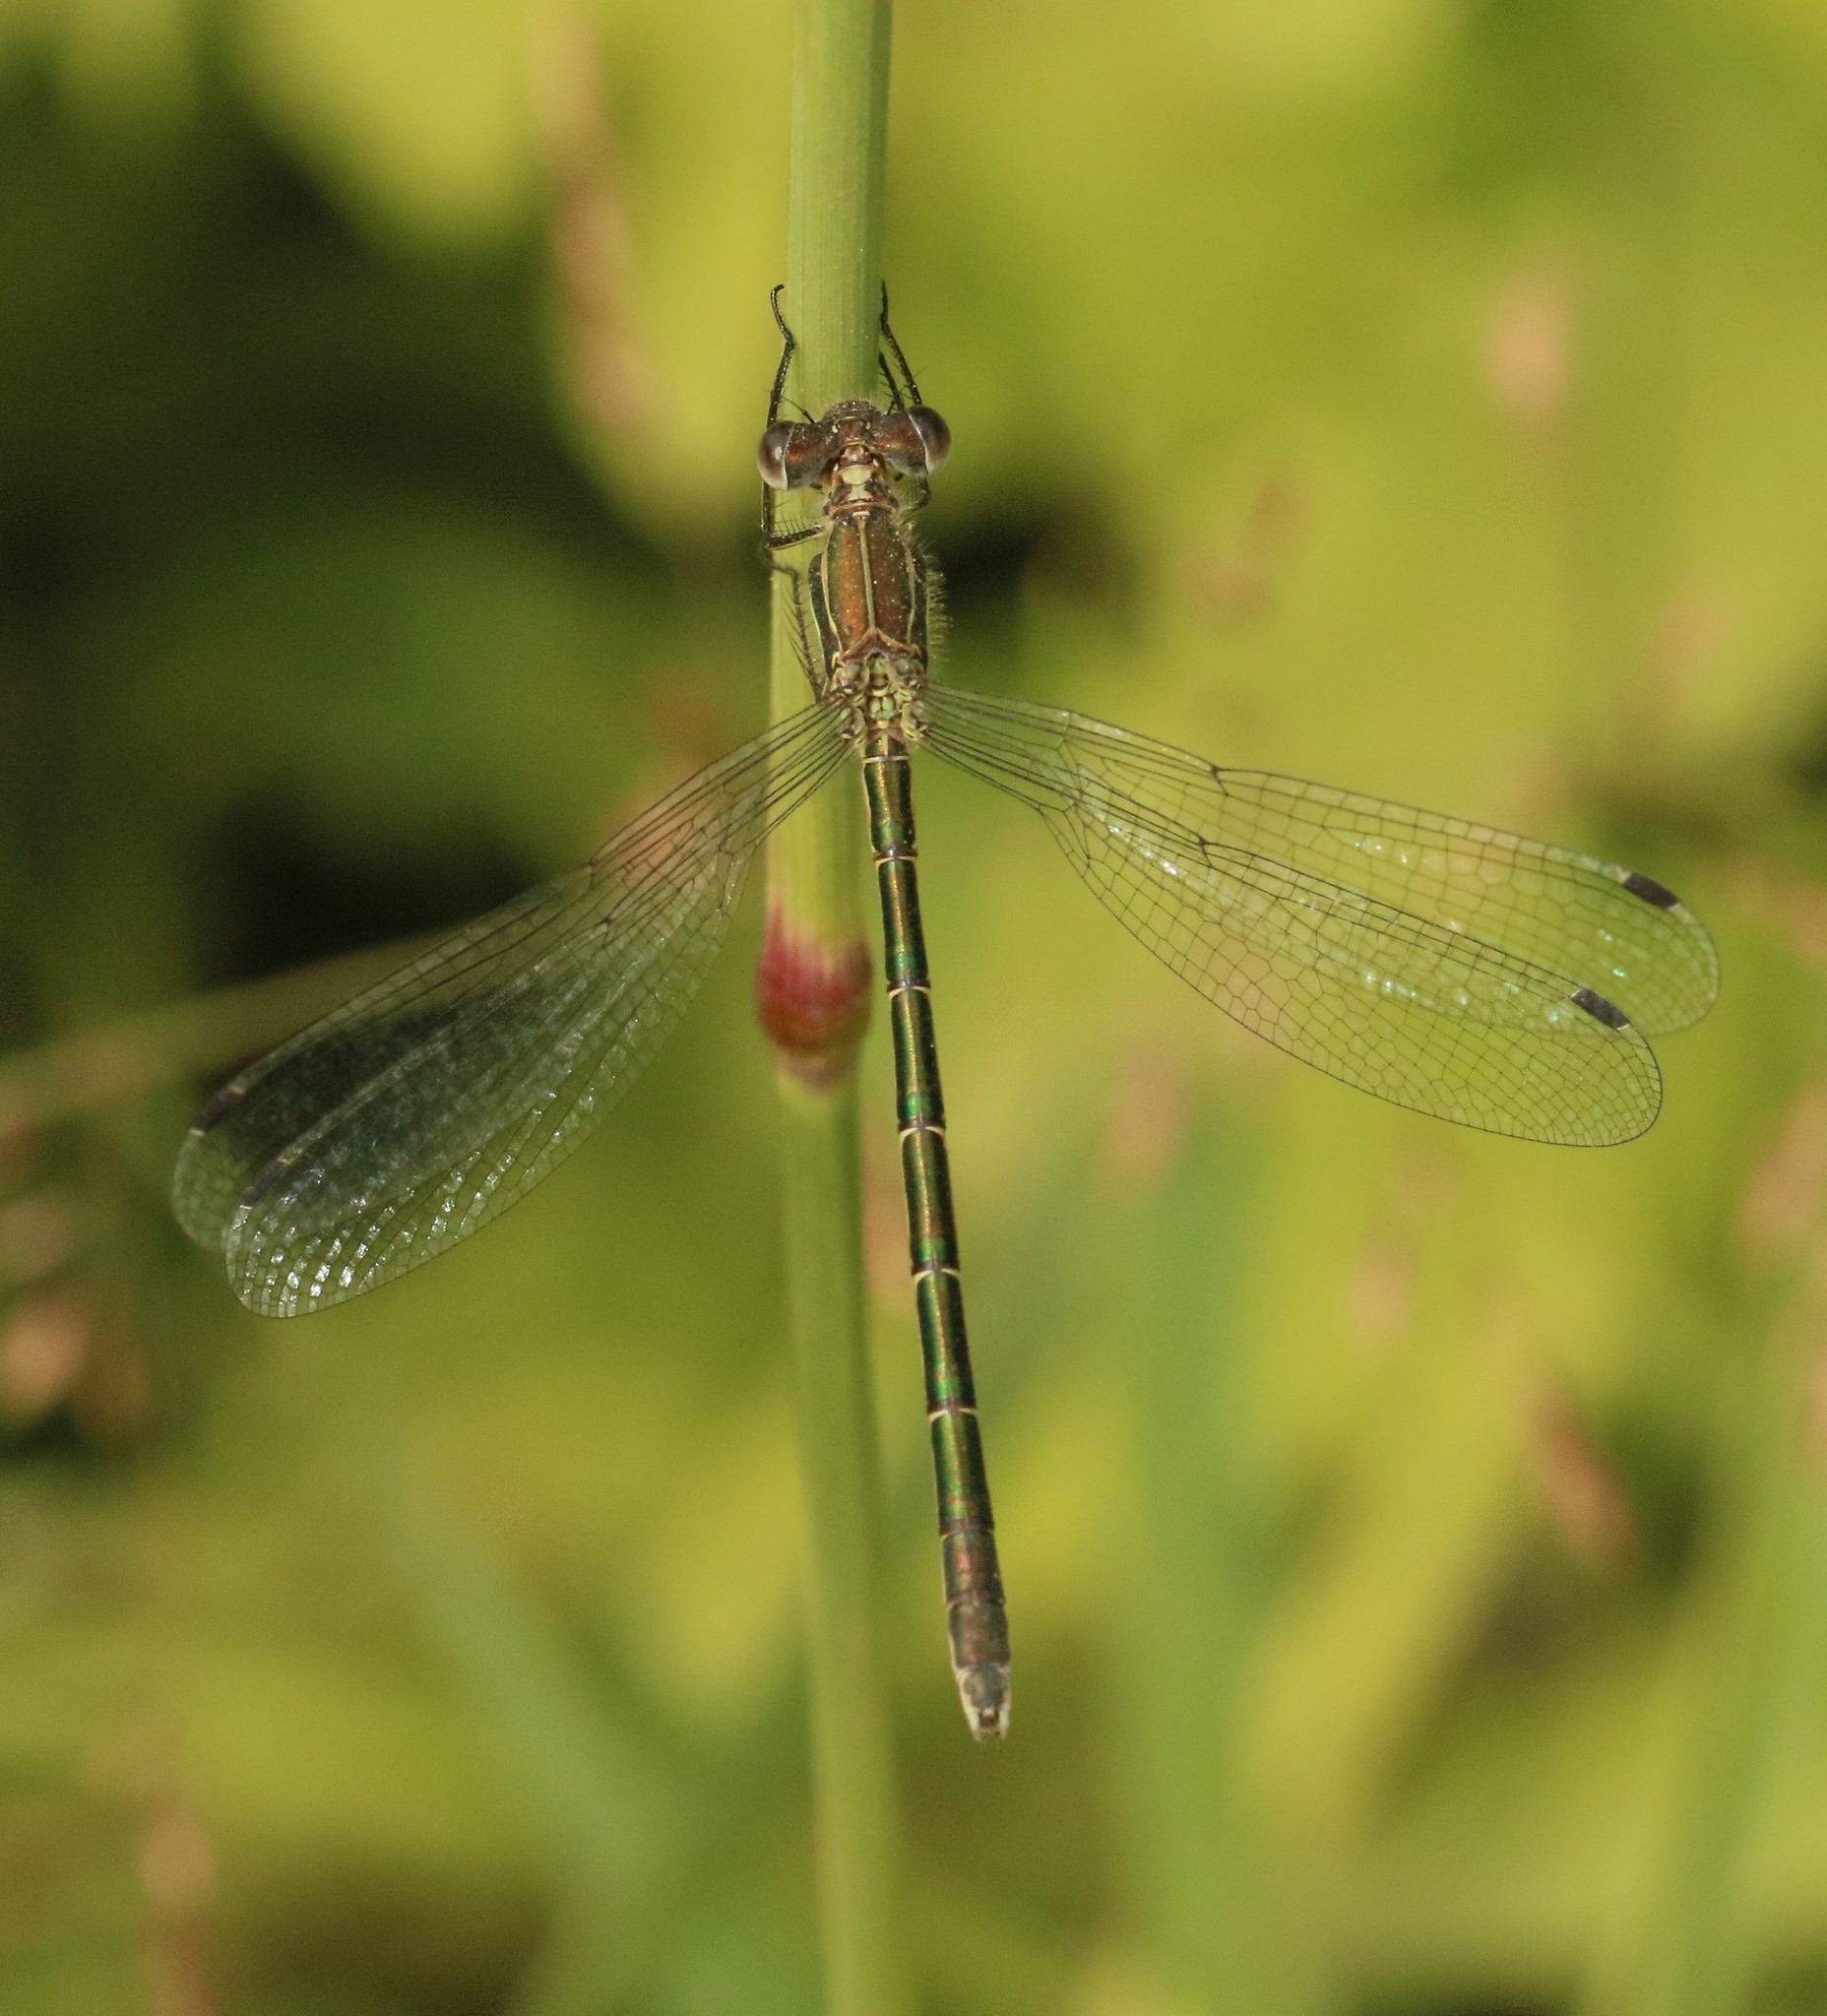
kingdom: Animalia
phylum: Arthropoda
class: Insecta
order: Odonata
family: Lestidae
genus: Lestes
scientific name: Lestes dryas
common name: Scarce emerald damselfly
